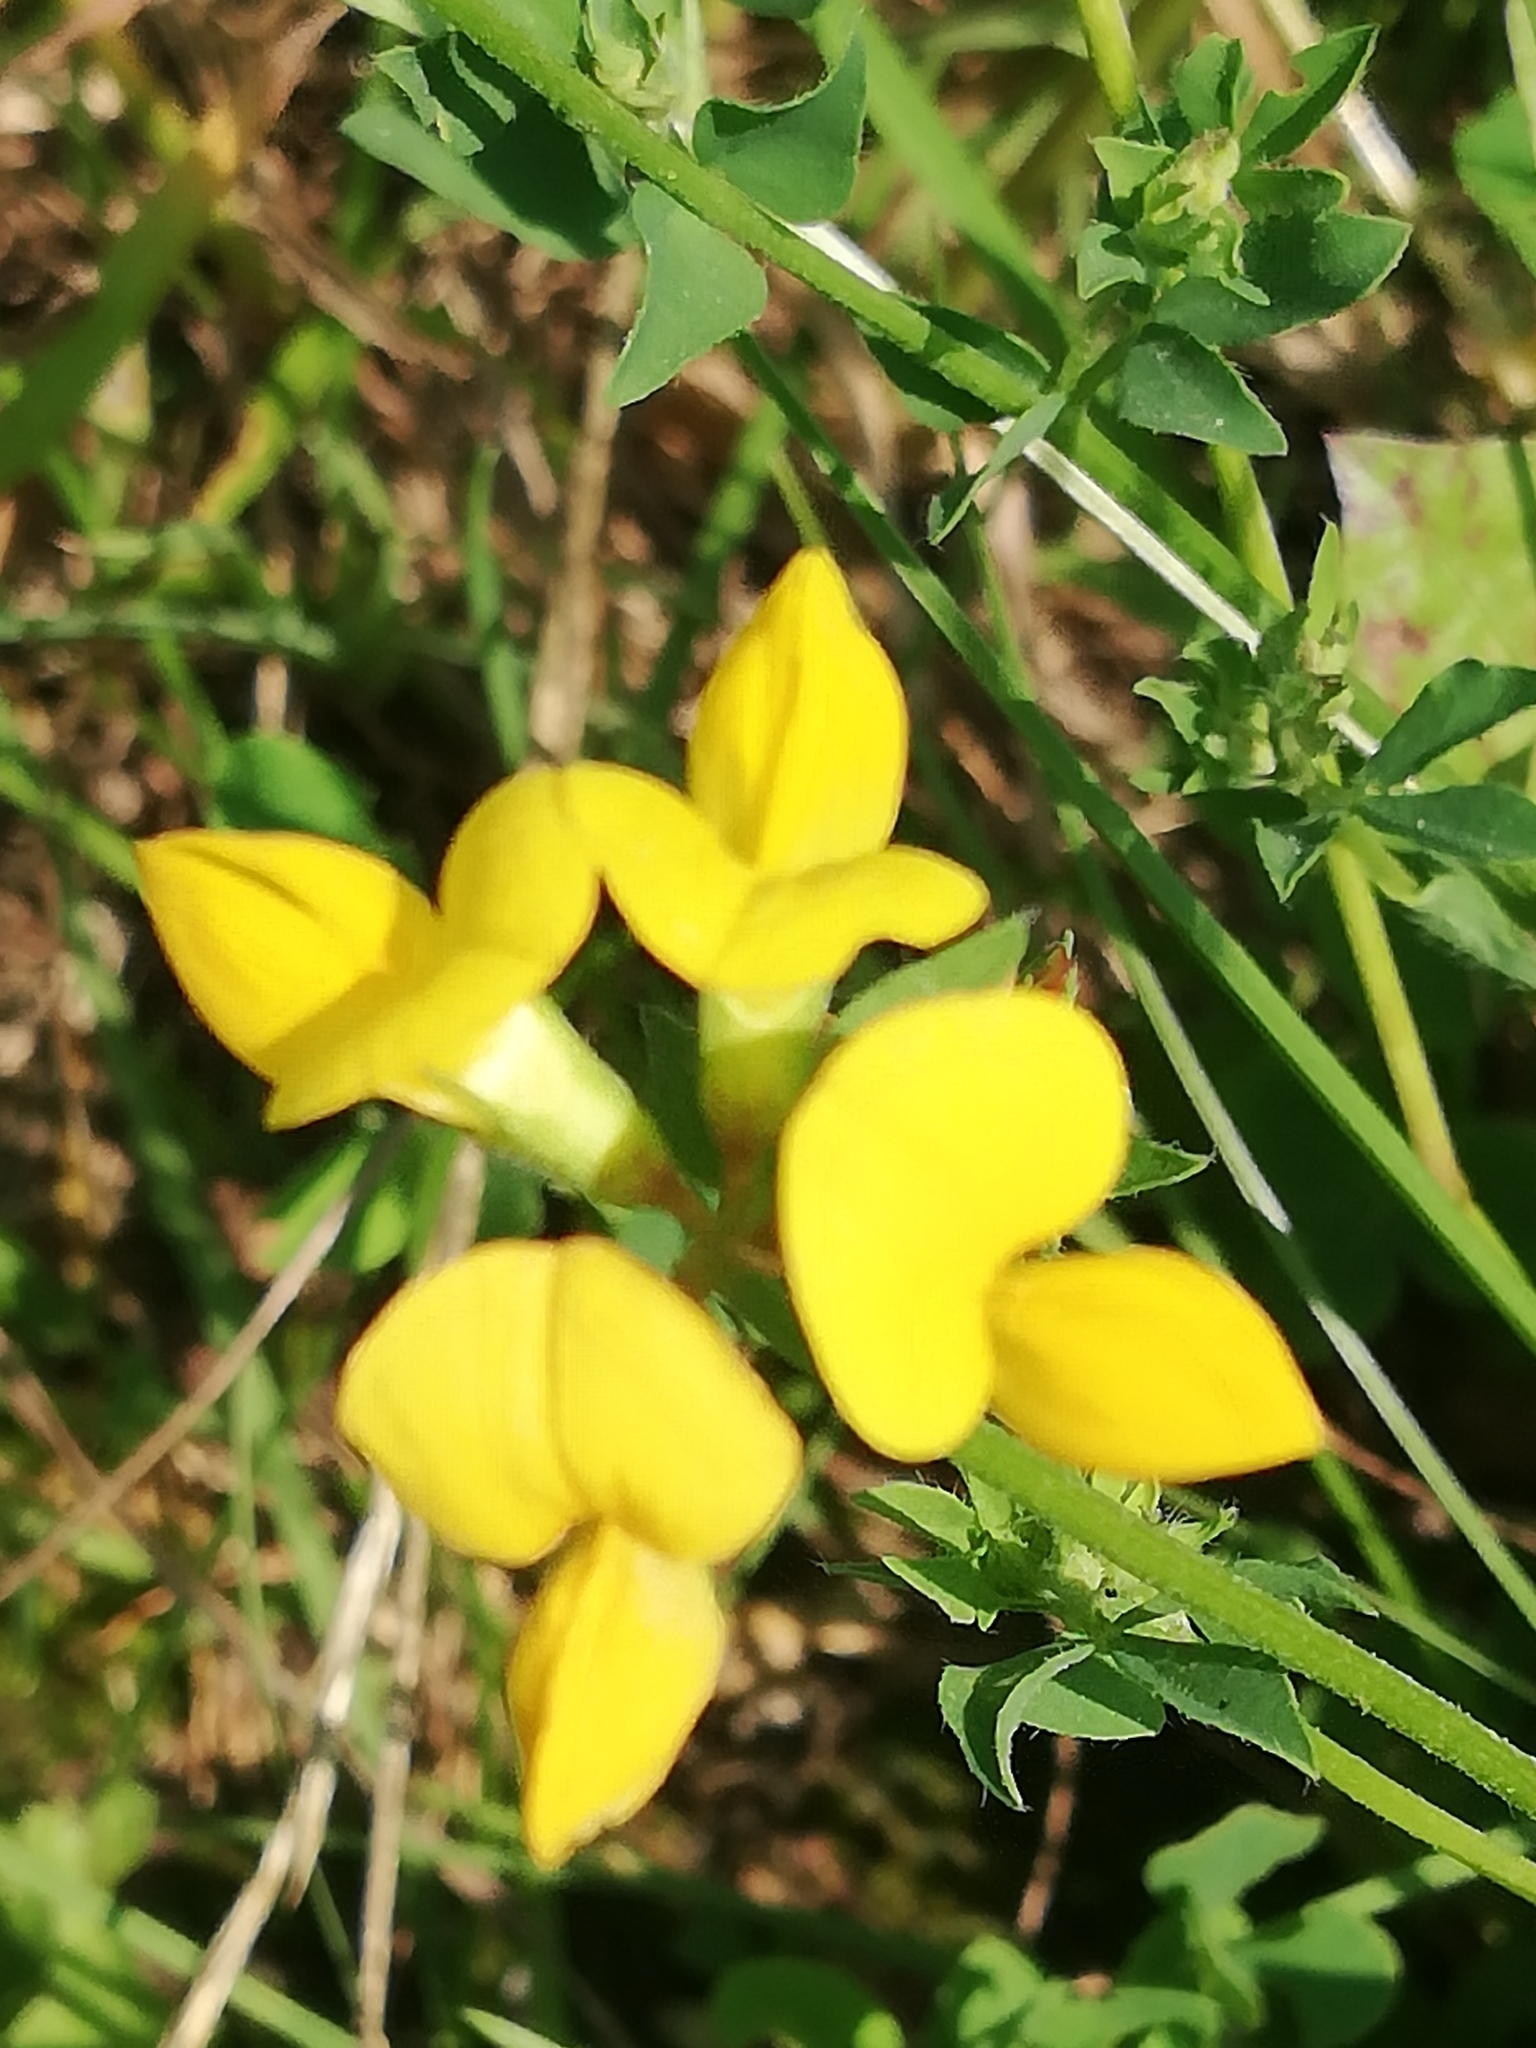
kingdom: Plantae
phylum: Tracheophyta
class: Magnoliopsida
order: Fabales
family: Fabaceae
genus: Lotus
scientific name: Lotus corniculatus
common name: Common bird's-foot-trefoil
